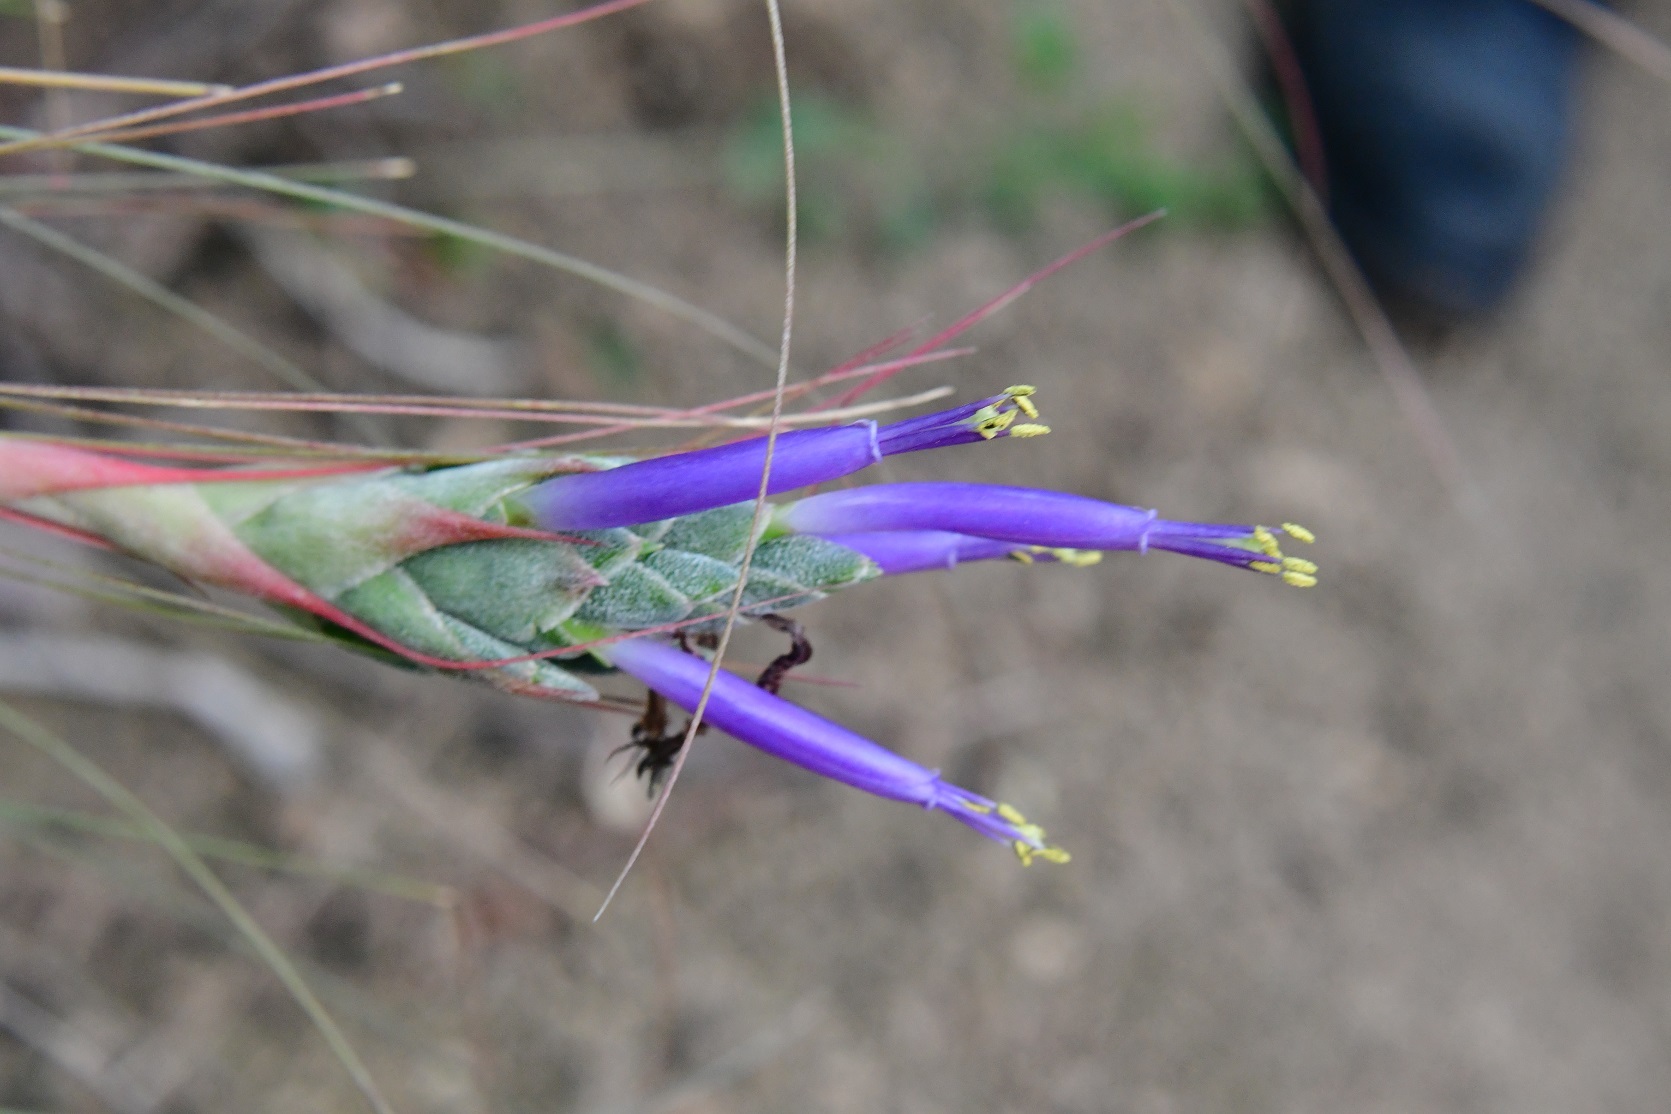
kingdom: Plantae
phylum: Tracheophyta
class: Liliopsida
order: Poales
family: Bromeliaceae
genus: Tillandsia
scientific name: Tillandsia juncea
